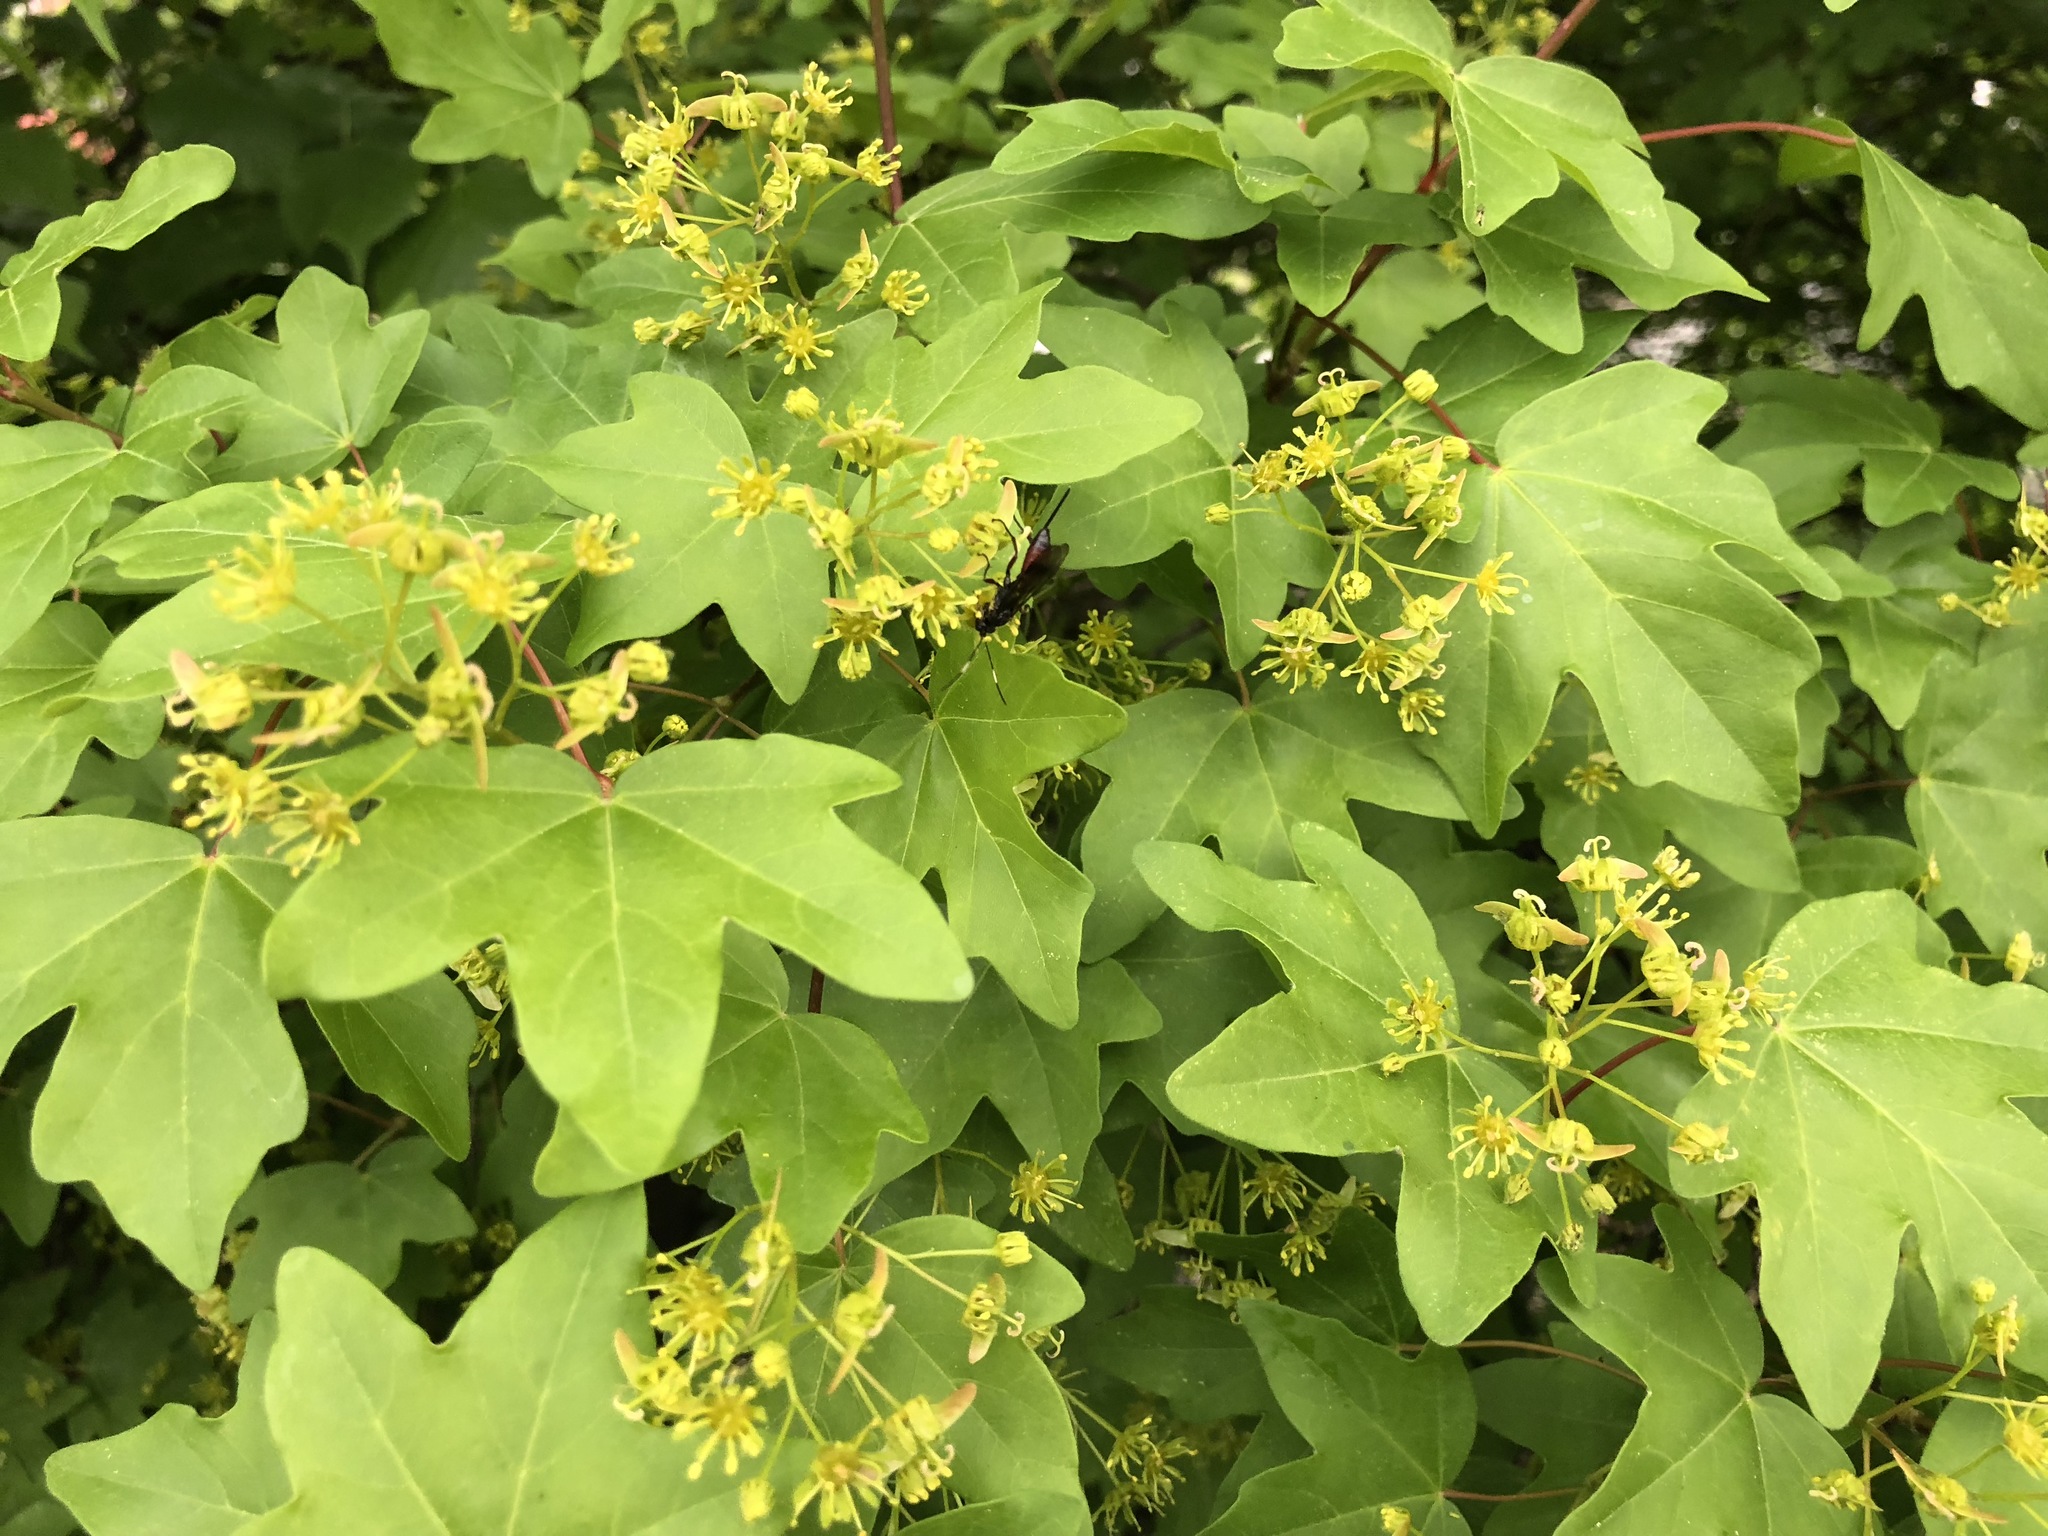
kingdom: Plantae
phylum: Tracheophyta
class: Magnoliopsida
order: Sapindales
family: Sapindaceae
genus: Acer
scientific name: Acer campestre
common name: Field maple
